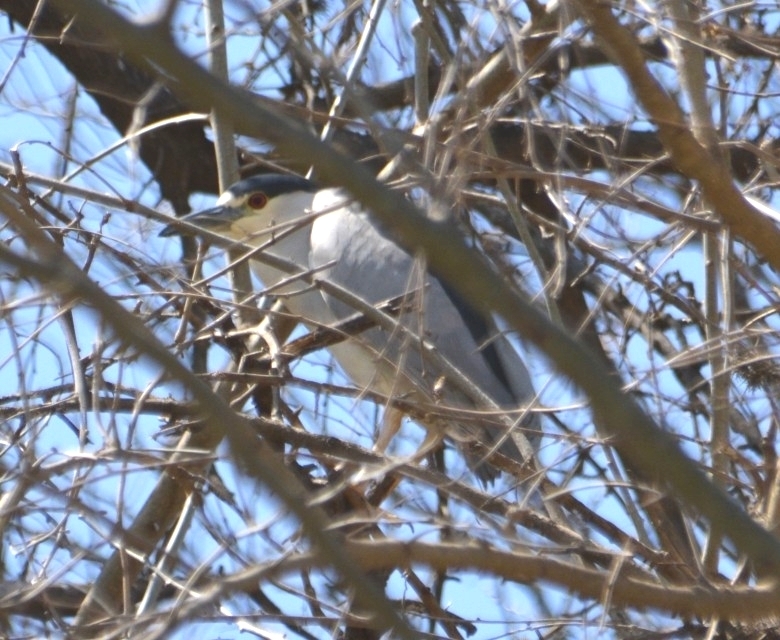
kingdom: Animalia
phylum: Chordata
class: Aves
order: Pelecaniformes
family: Ardeidae
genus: Nycticorax
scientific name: Nycticorax nycticorax
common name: Black-crowned night heron
